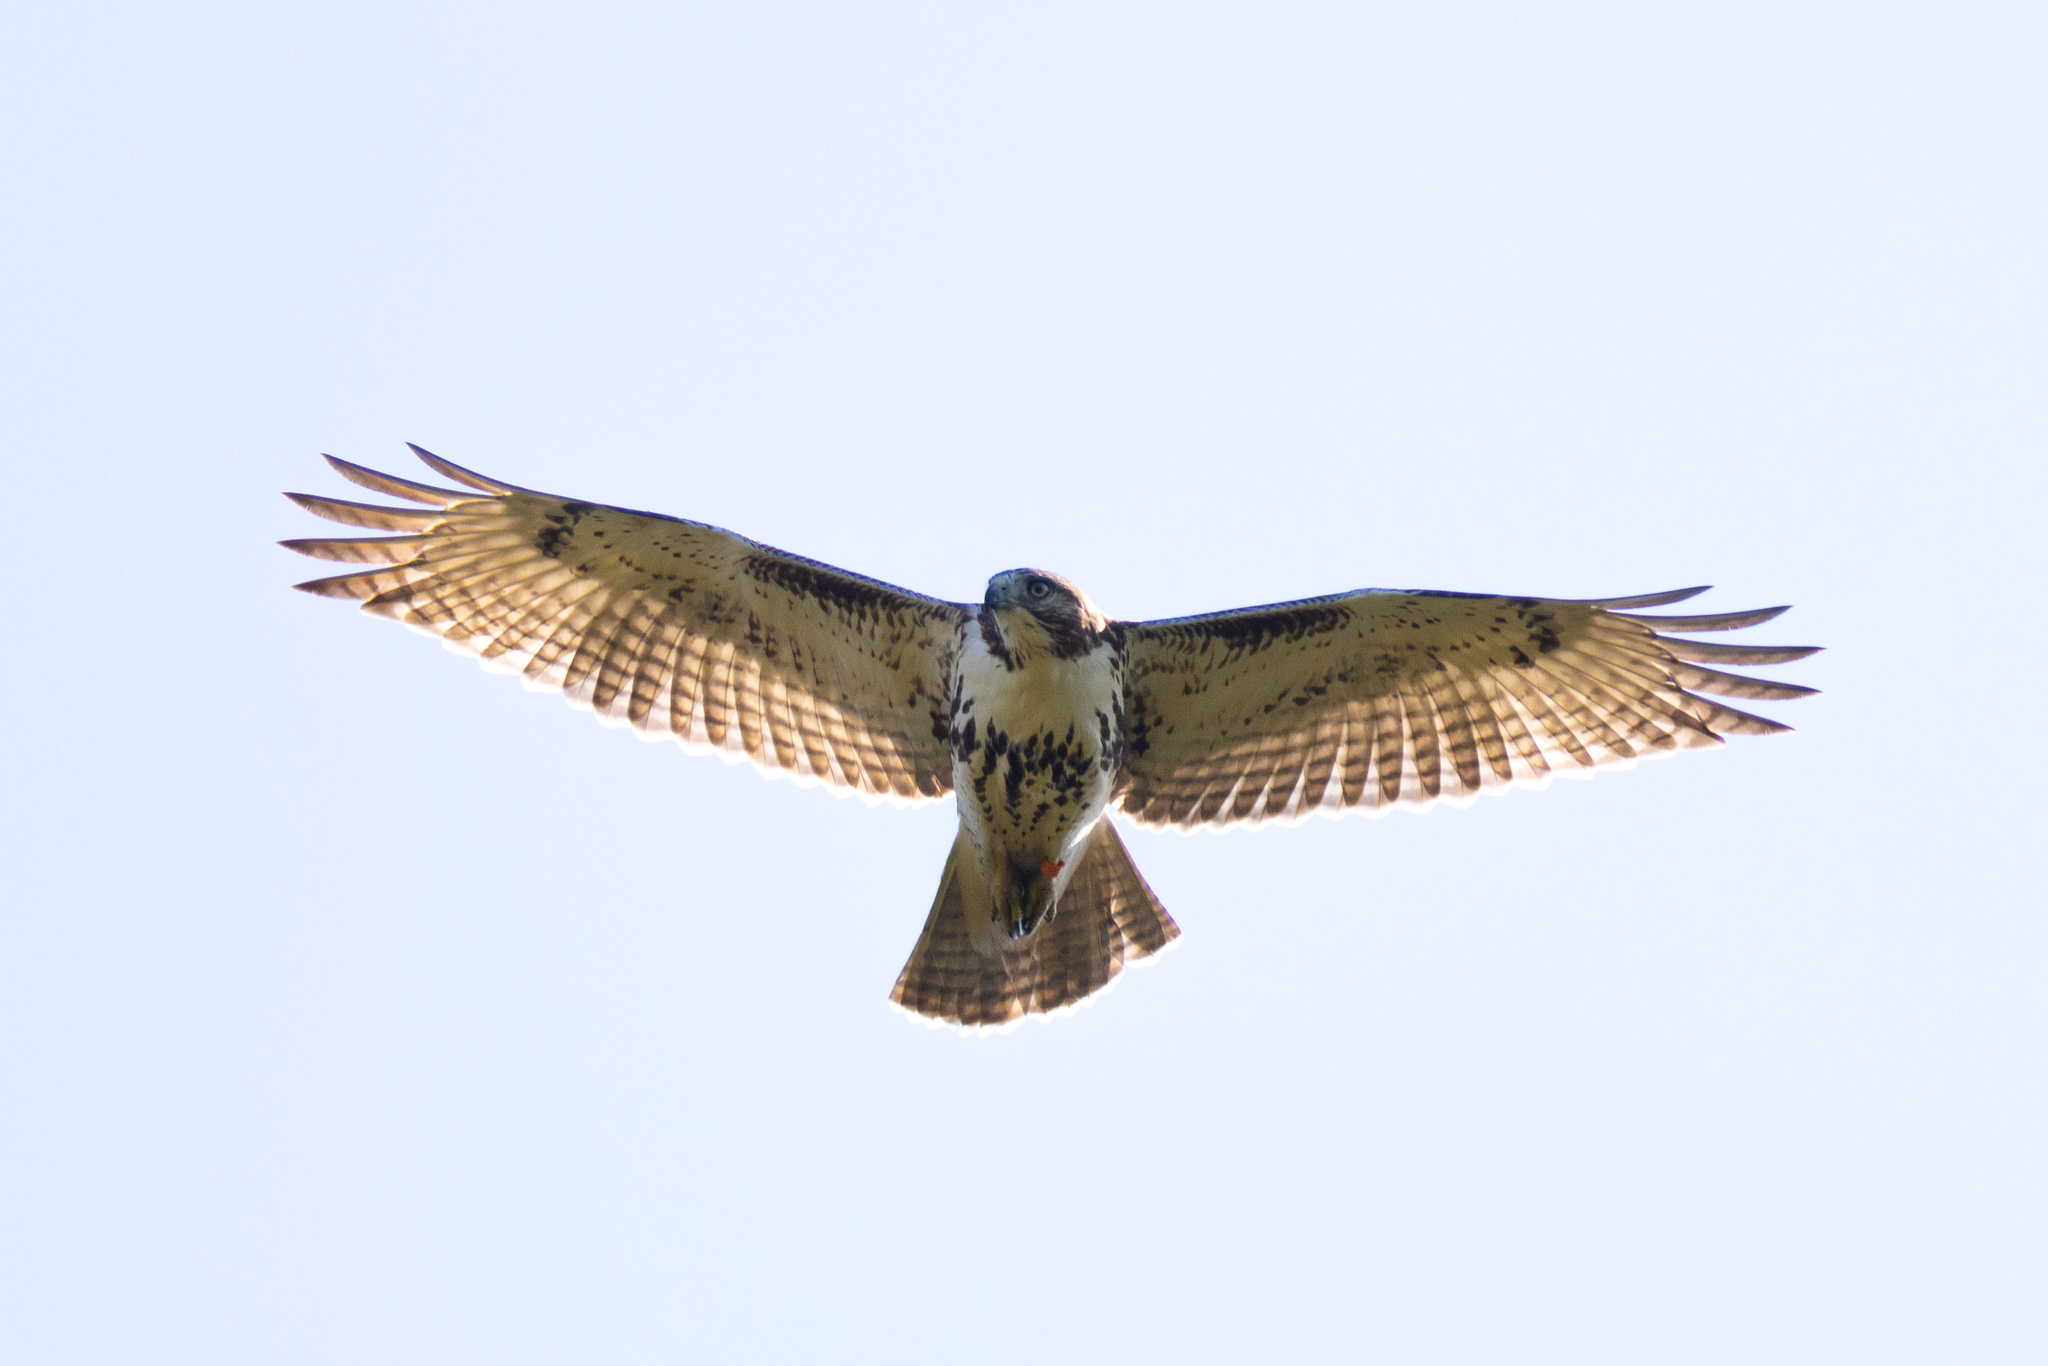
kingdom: Animalia
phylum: Chordata
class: Aves
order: Accipitriformes
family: Accipitridae
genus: Buteo
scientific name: Buteo jamaicensis
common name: Red-tailed hawk
